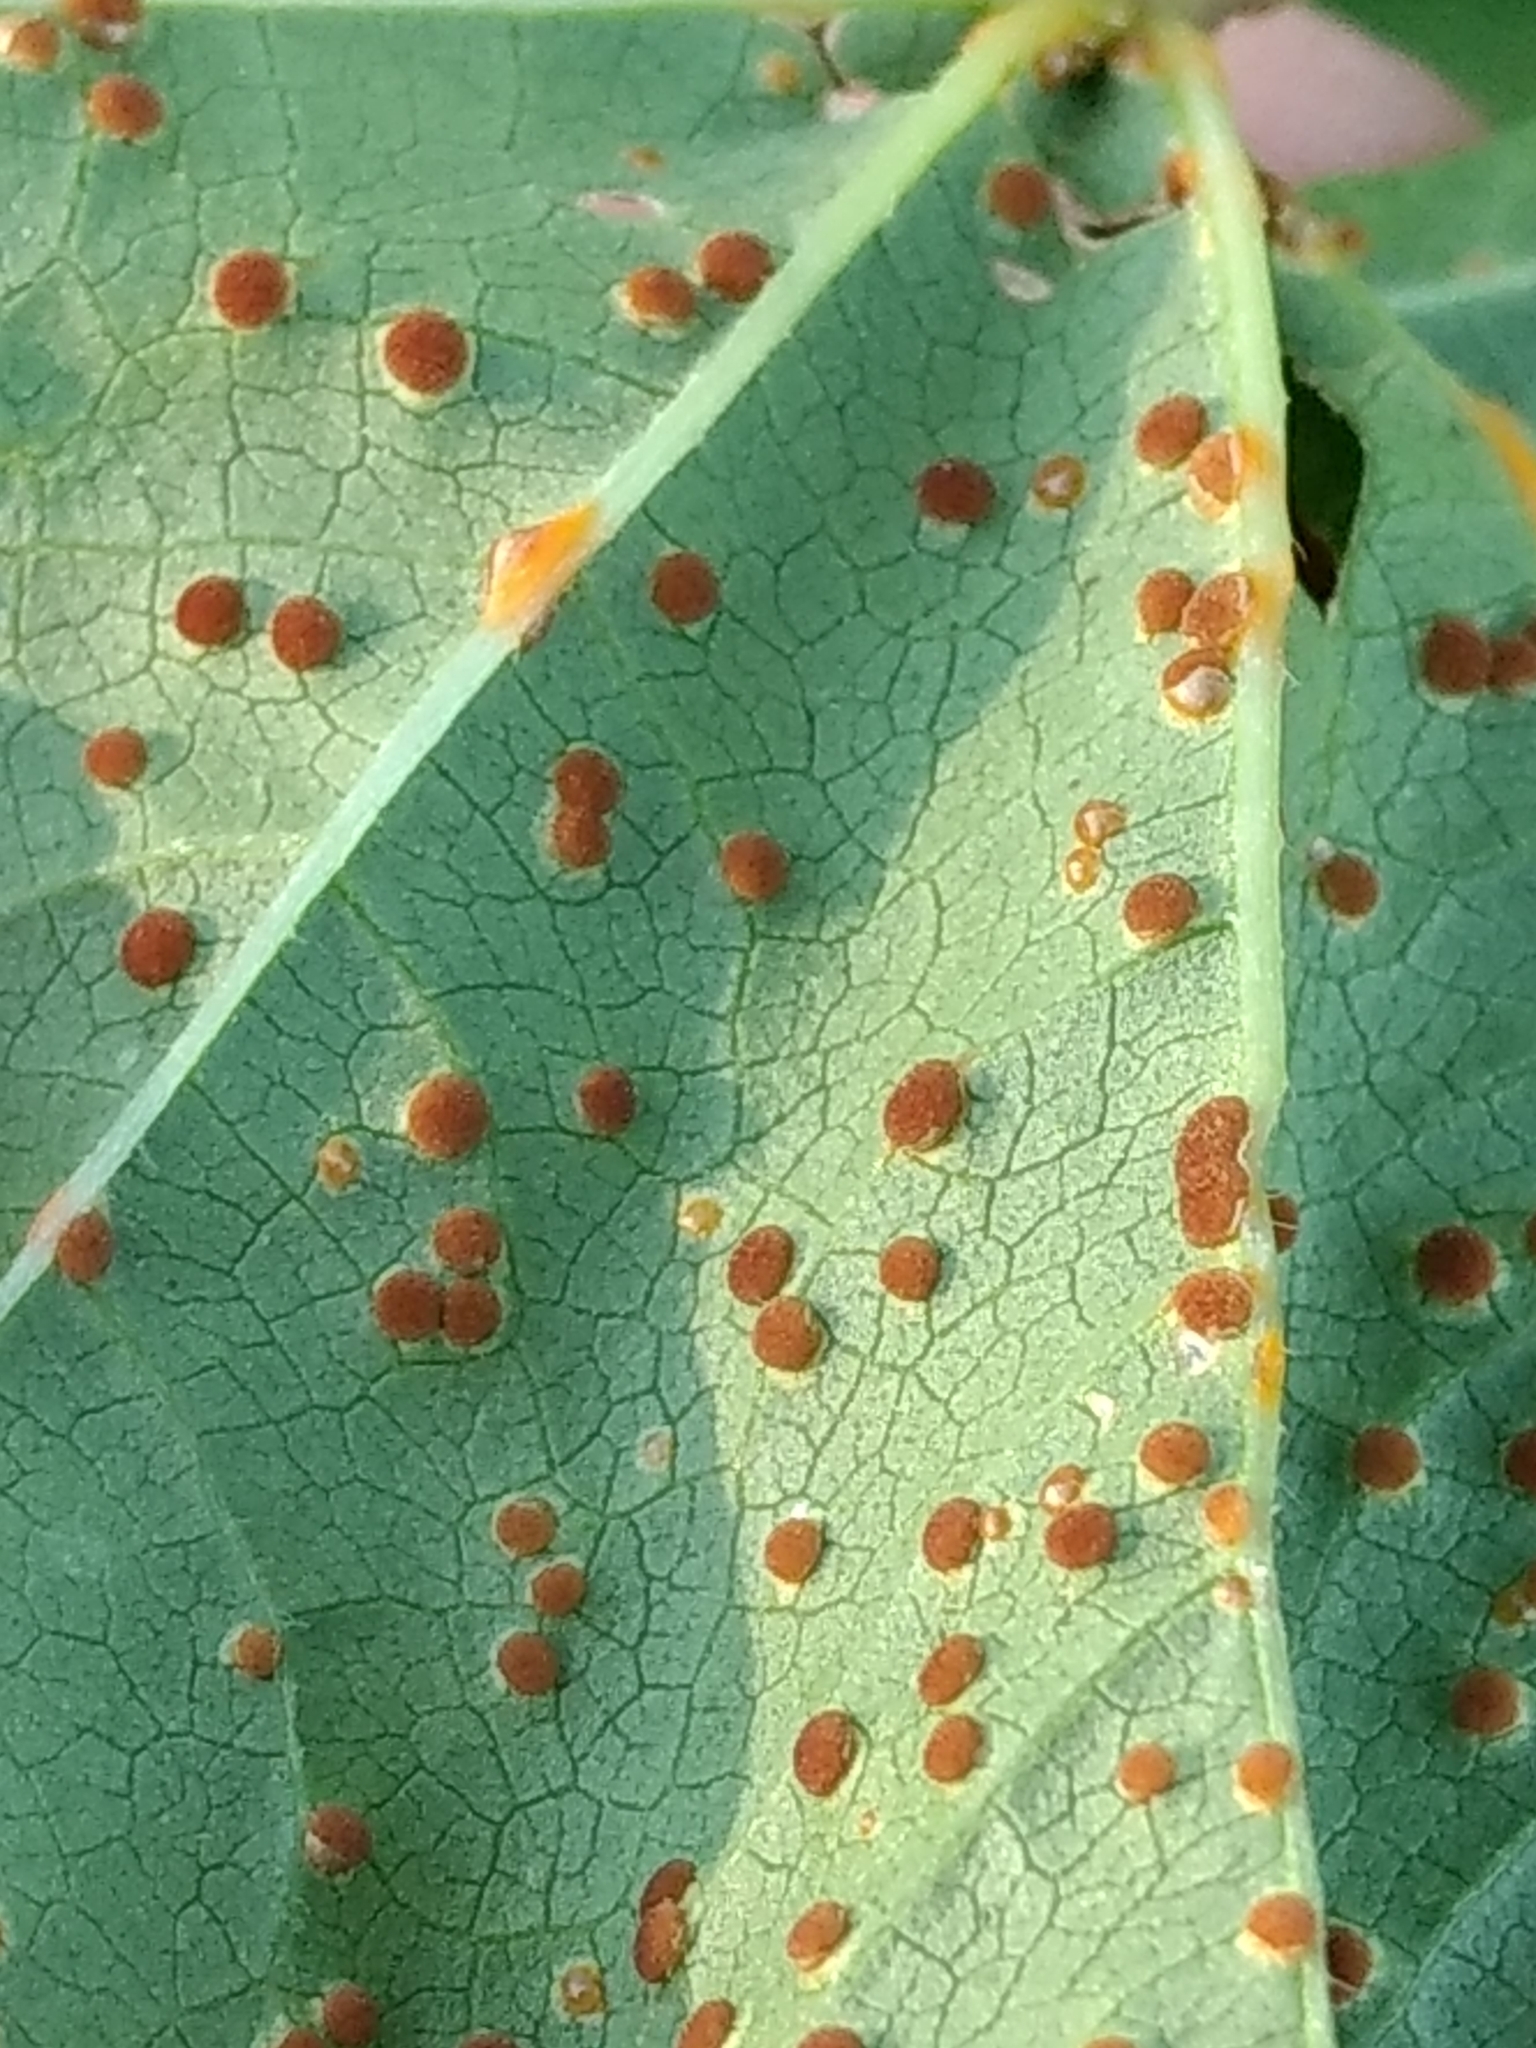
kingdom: Fungi
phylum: Basidiomycota
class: Pucciniomycetes
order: Pucciniales
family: Pucciniaceae
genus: Puccinia
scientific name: Puccinia malvacearum
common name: Hollyhock rust
